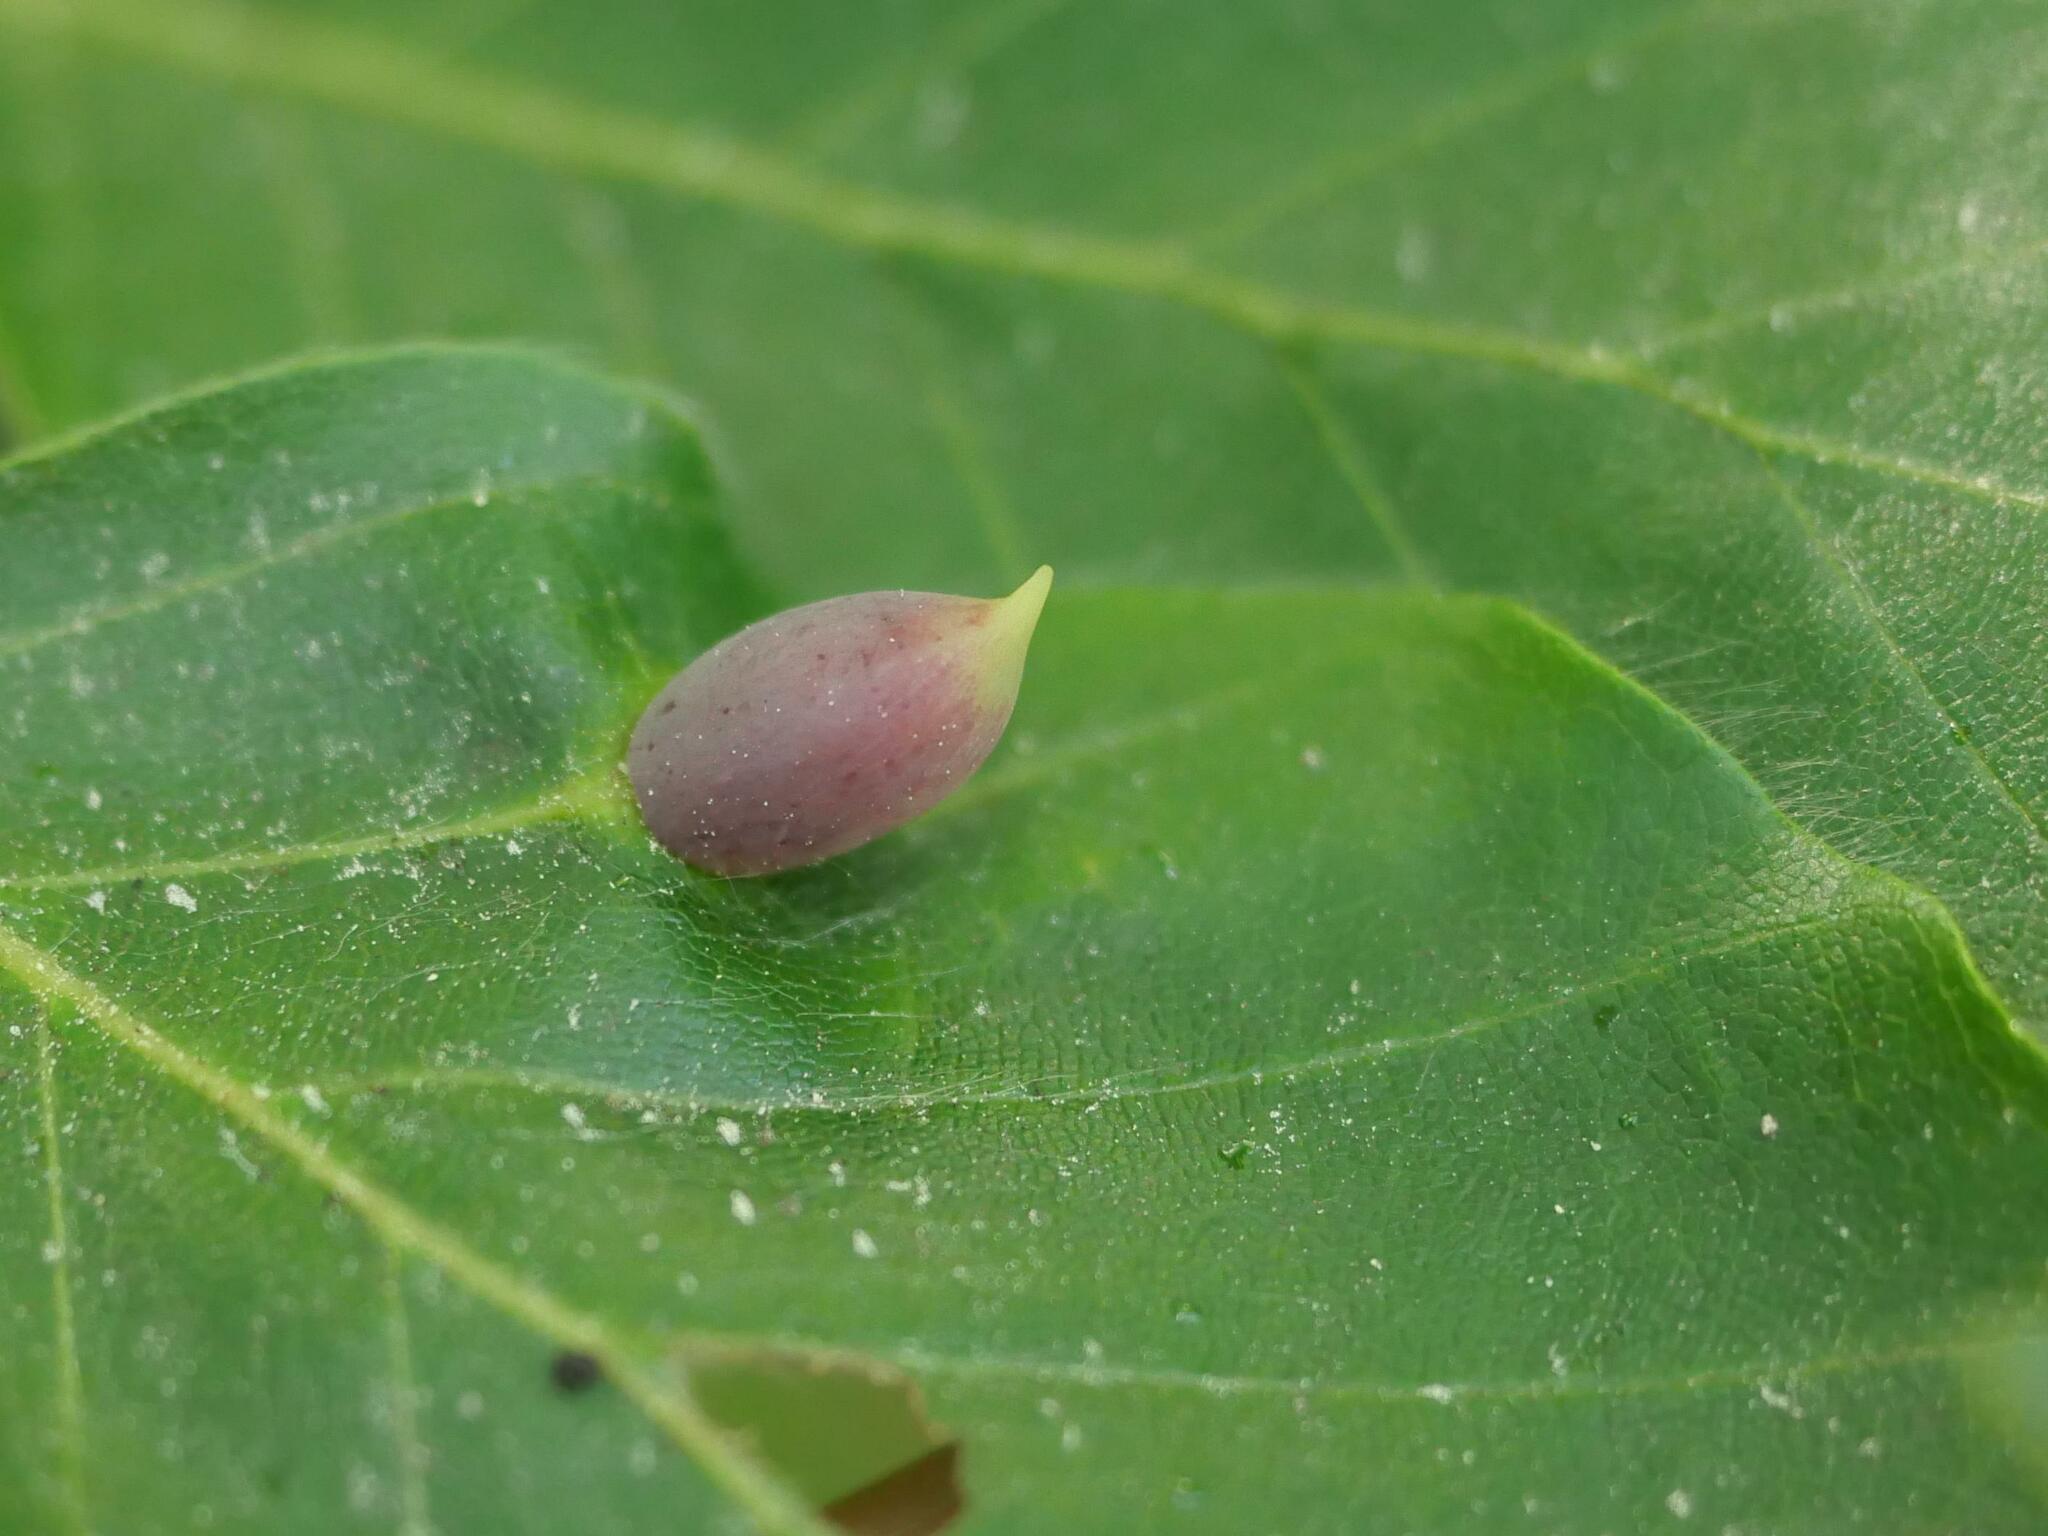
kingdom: Animalia
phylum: Arthropoda
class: Insecta
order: Diptera
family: Cecidomyiidae
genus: Mikiola
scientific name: Mikiola fagi
